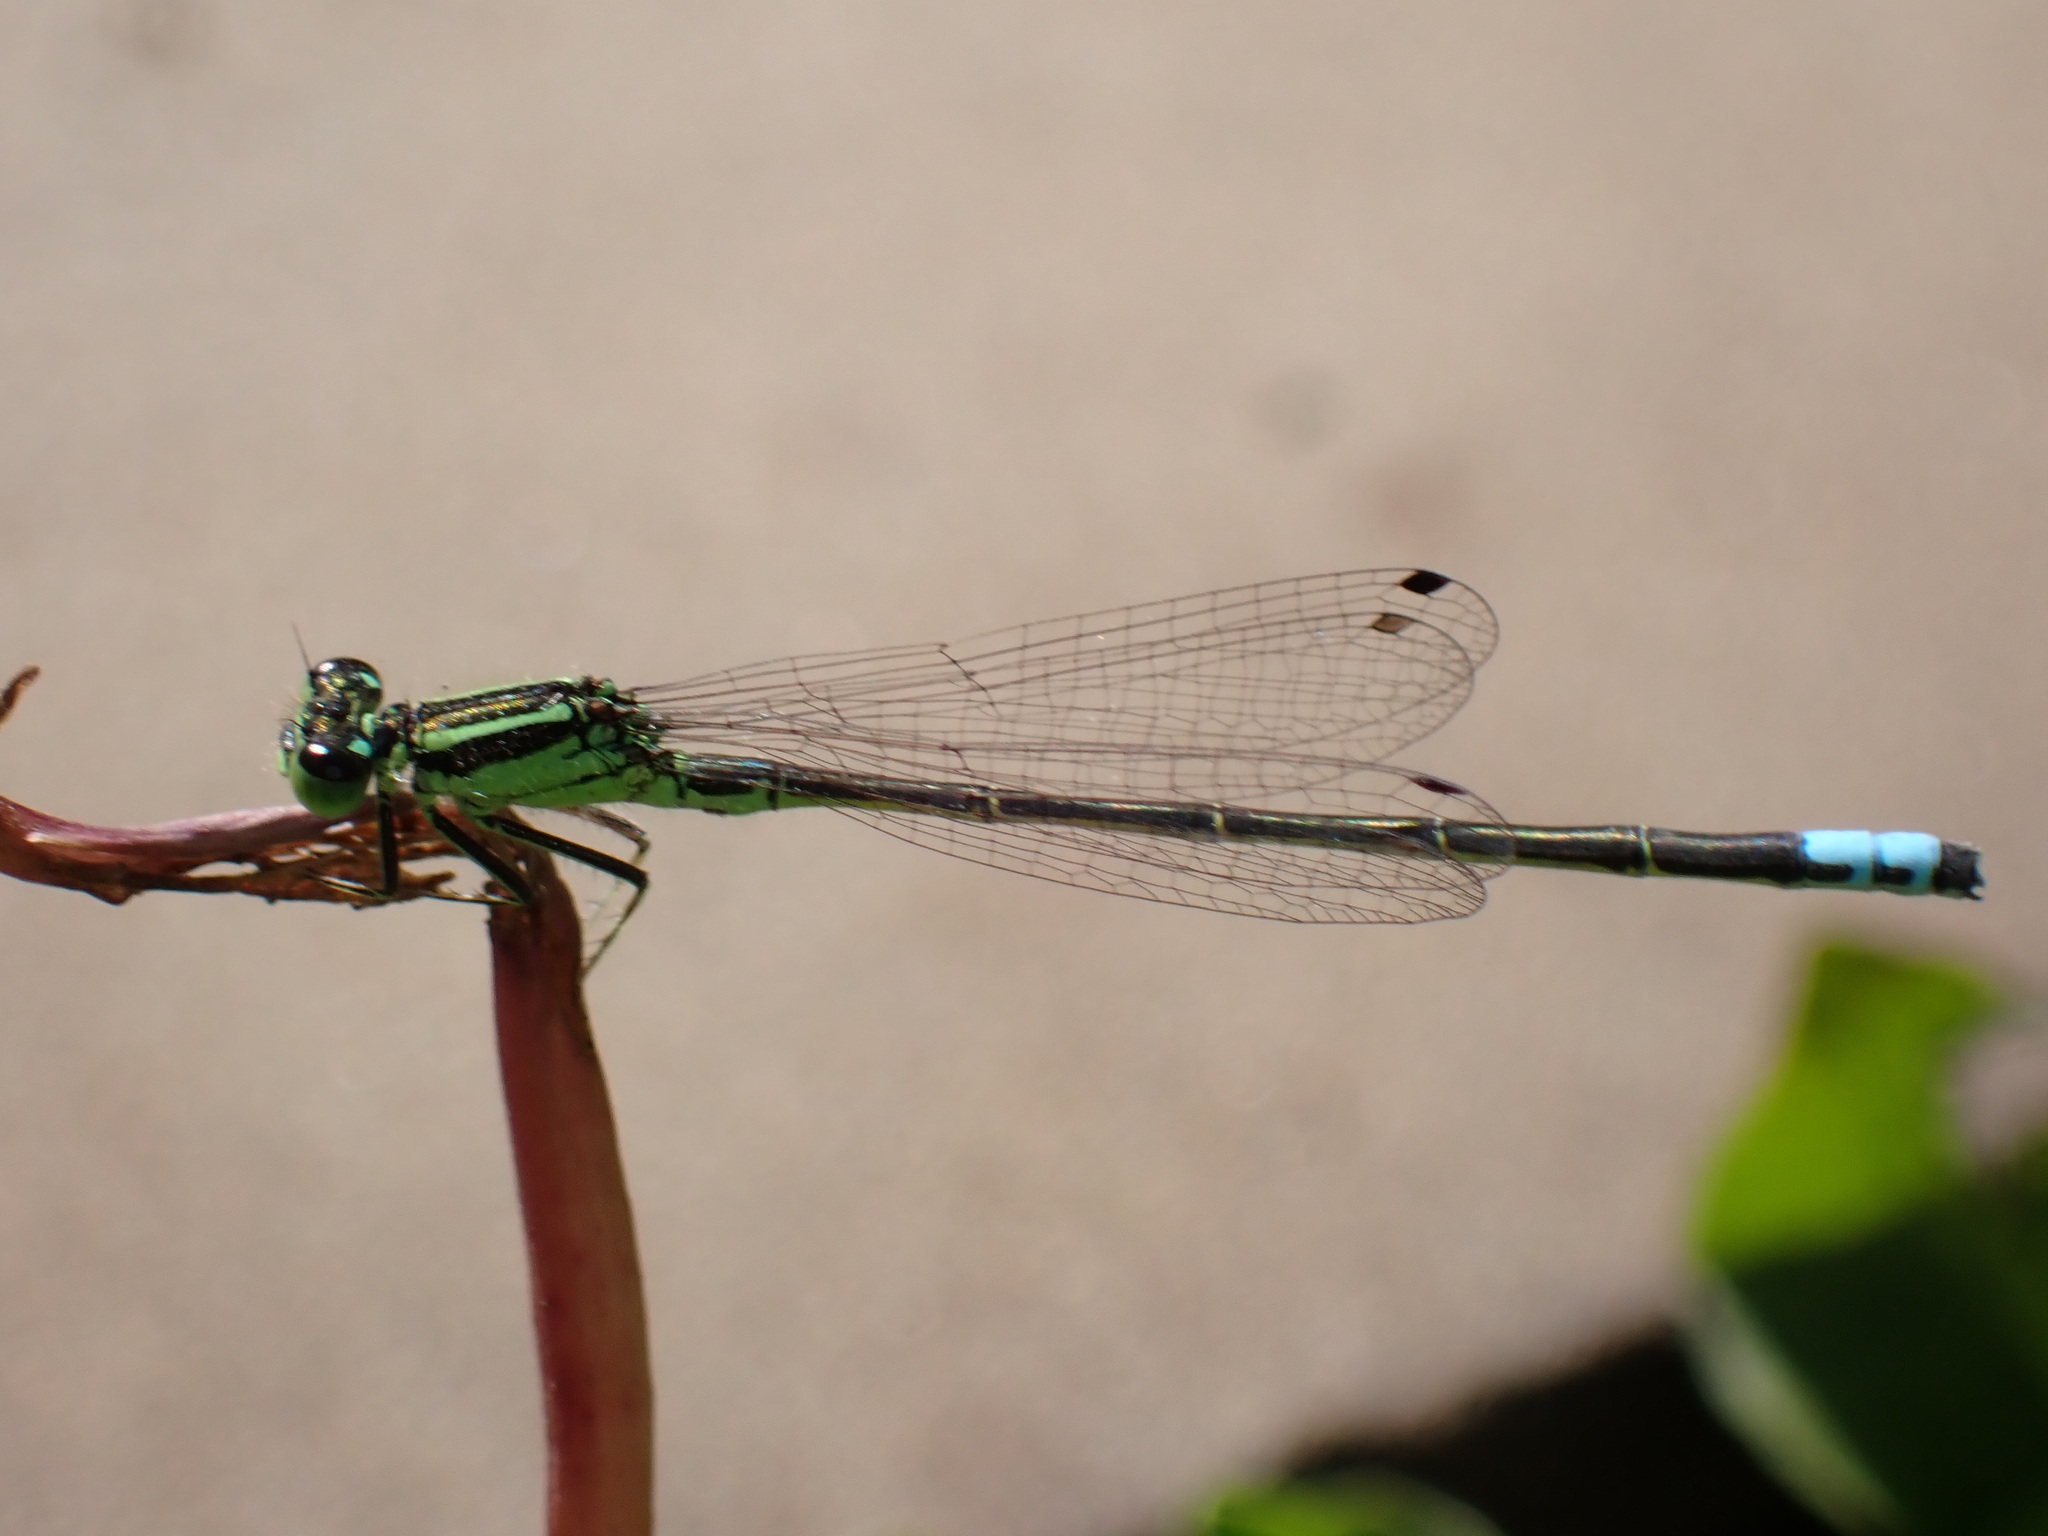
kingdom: Animalia
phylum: Arthropoda
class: Insecta
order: Odonata
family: Coenagrionidae
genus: Ischnura
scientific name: Ischnura verticalis
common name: Eastern forktail
